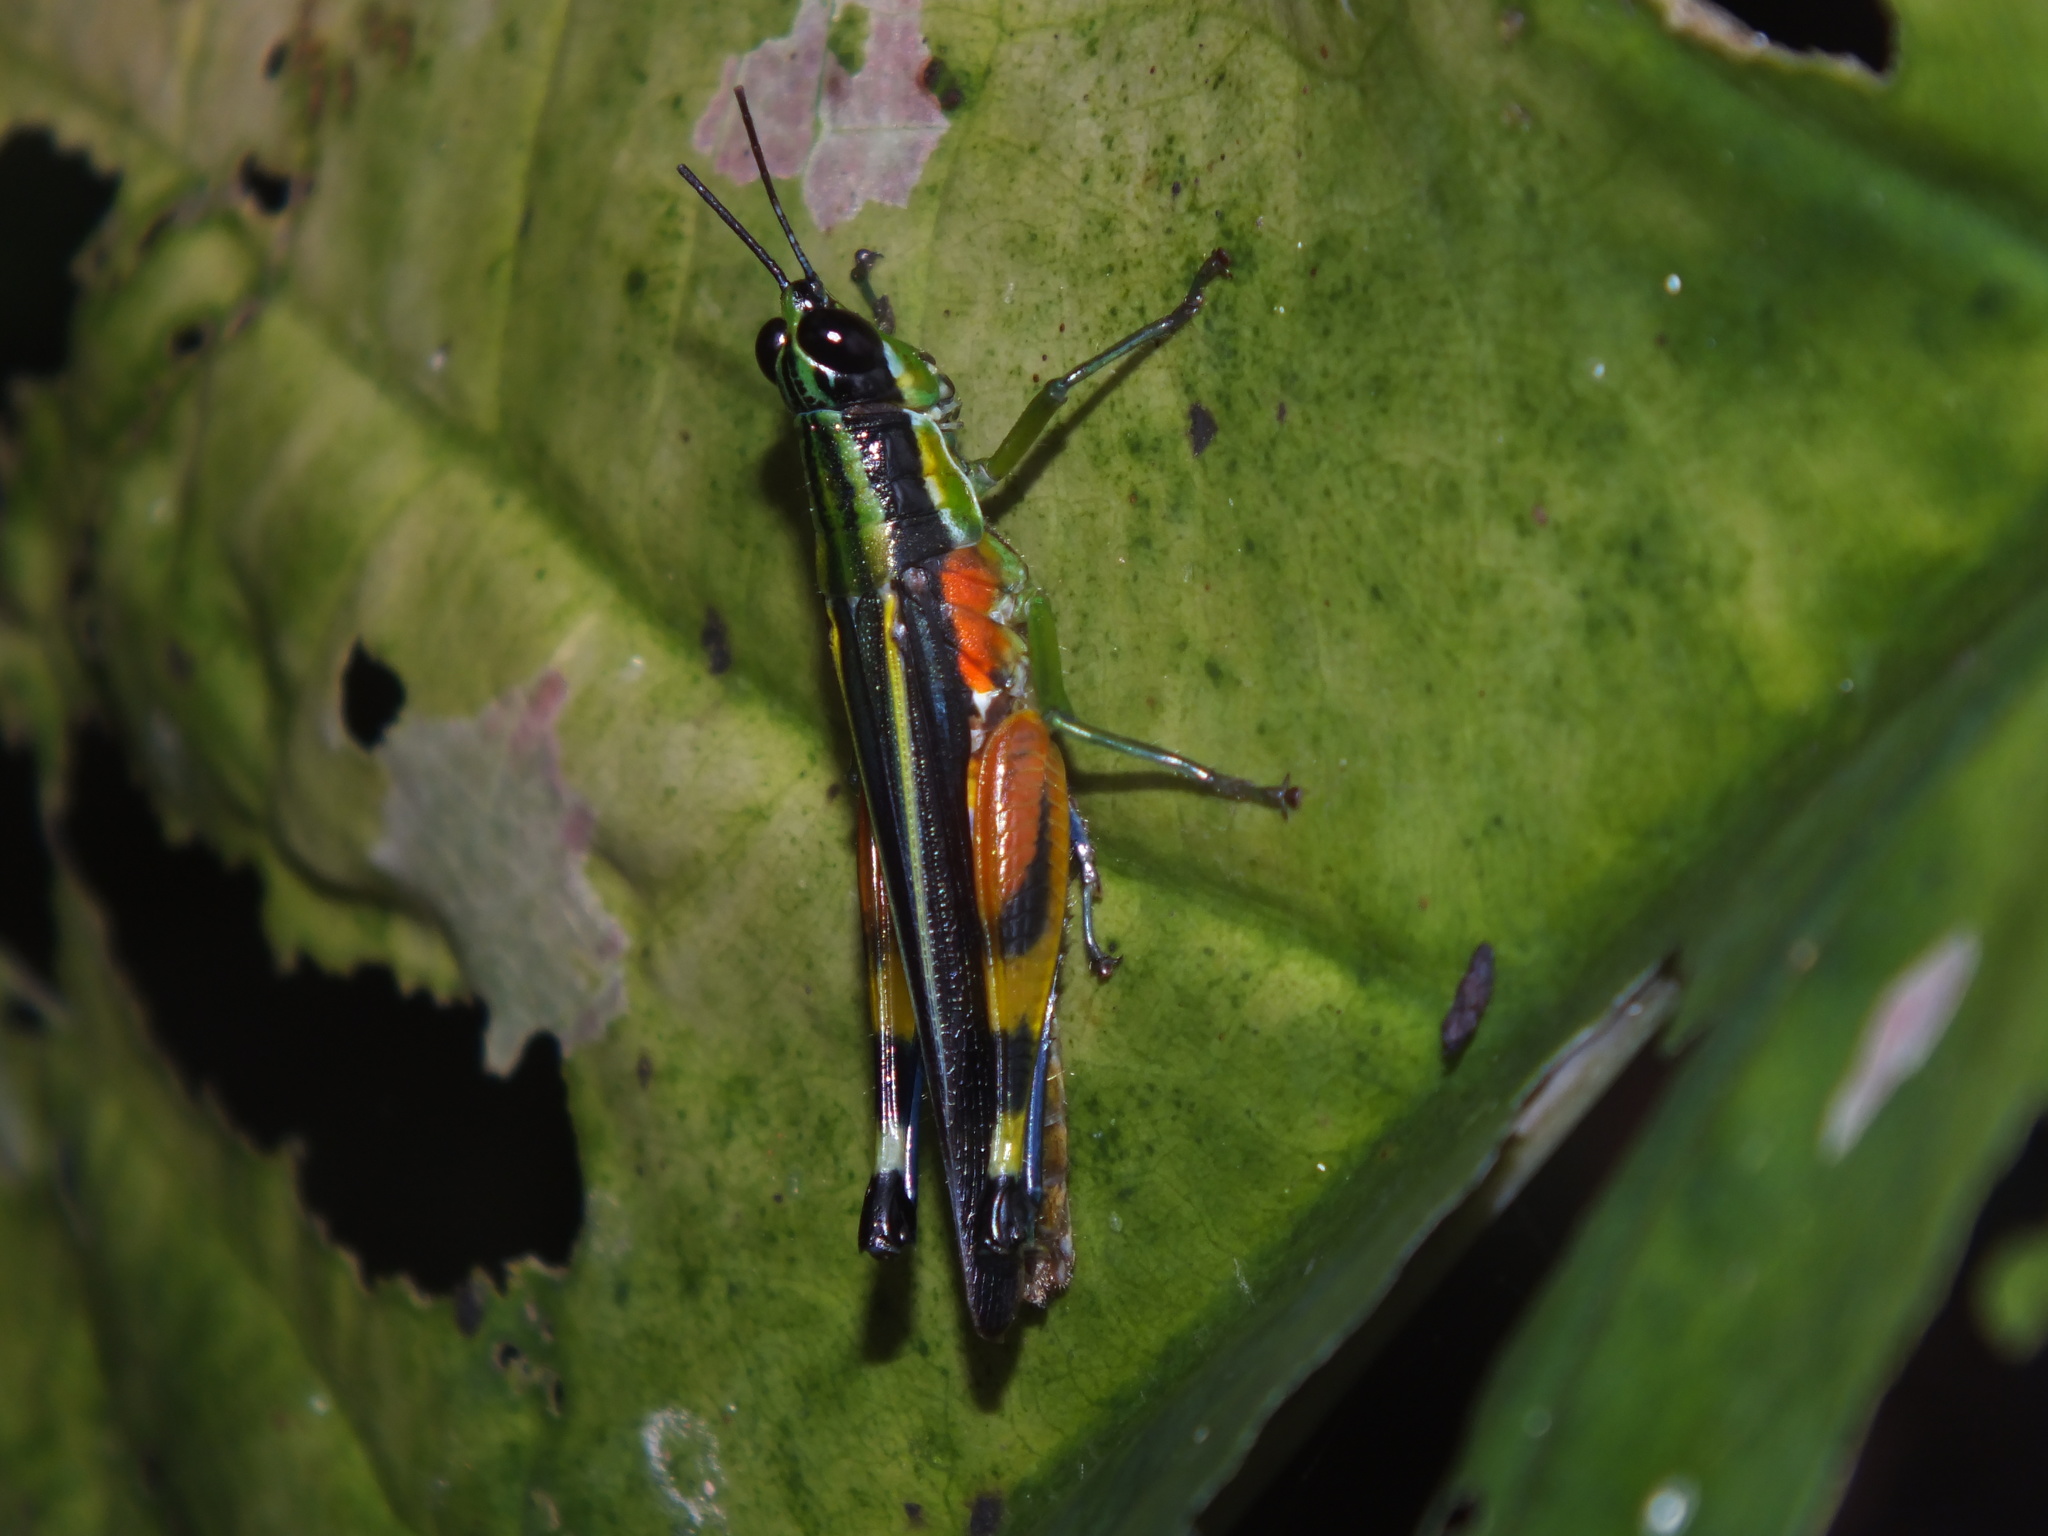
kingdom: Animalia
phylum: Arthropoda
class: Insecta
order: Orthoptera
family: Acrididae
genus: Stenopola
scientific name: Stenopola boliviana
